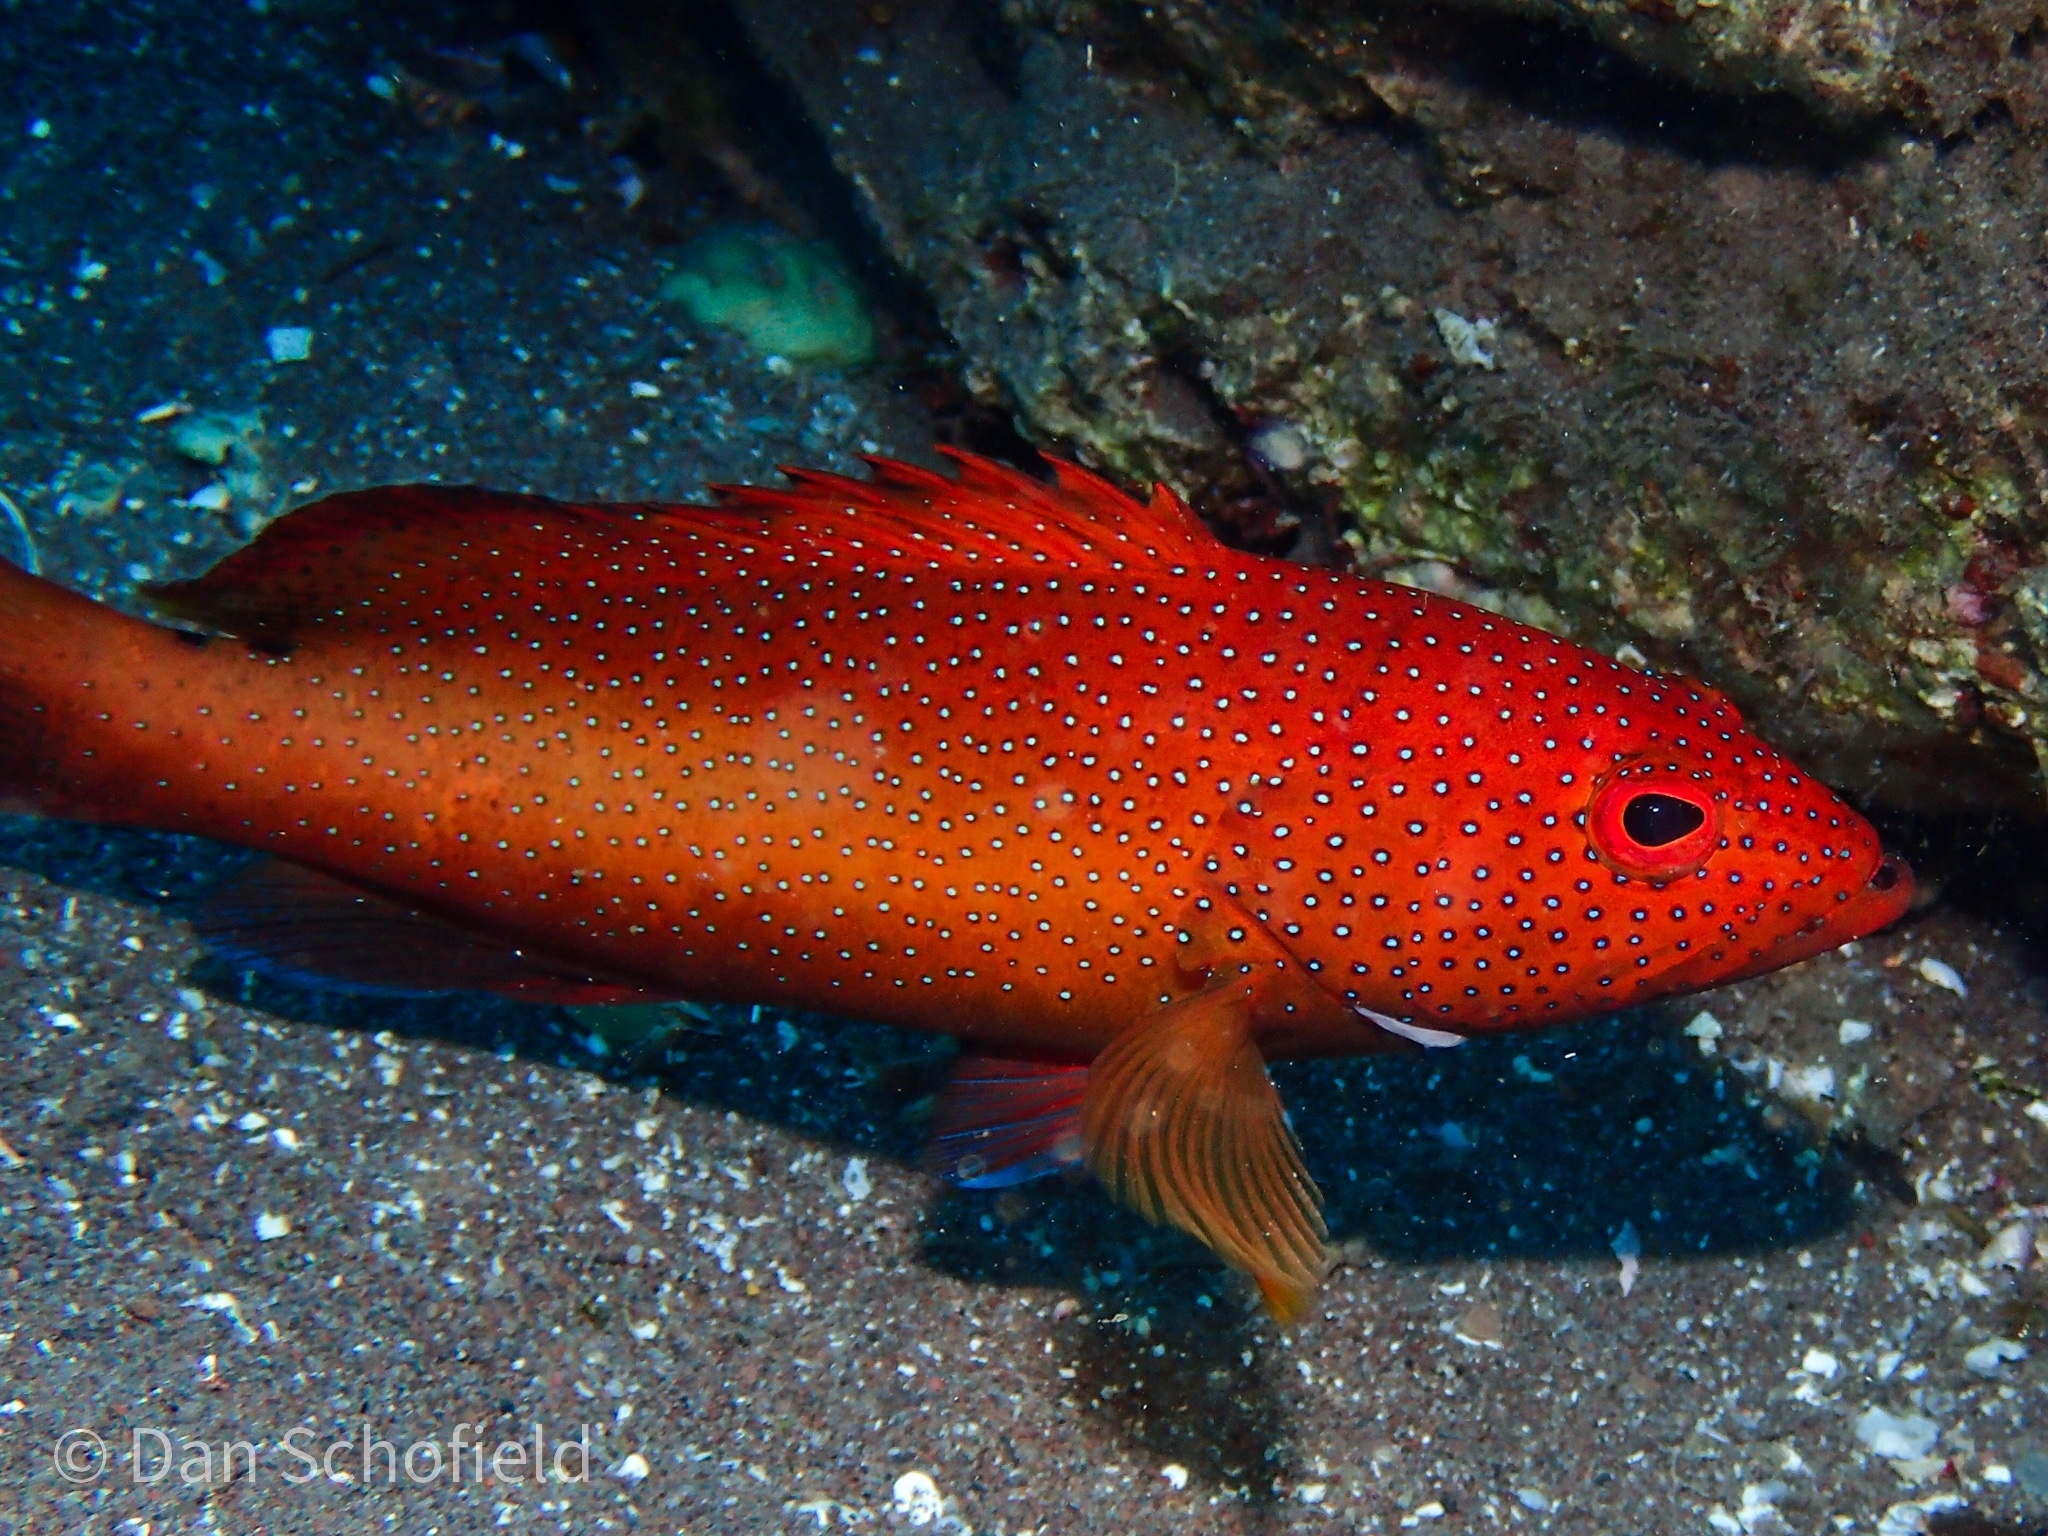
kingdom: Animalia
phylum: Chordata
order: Perciformes
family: Serranidae
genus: Cephalopholis
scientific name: Cephalopholis fulva
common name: Butterfish
